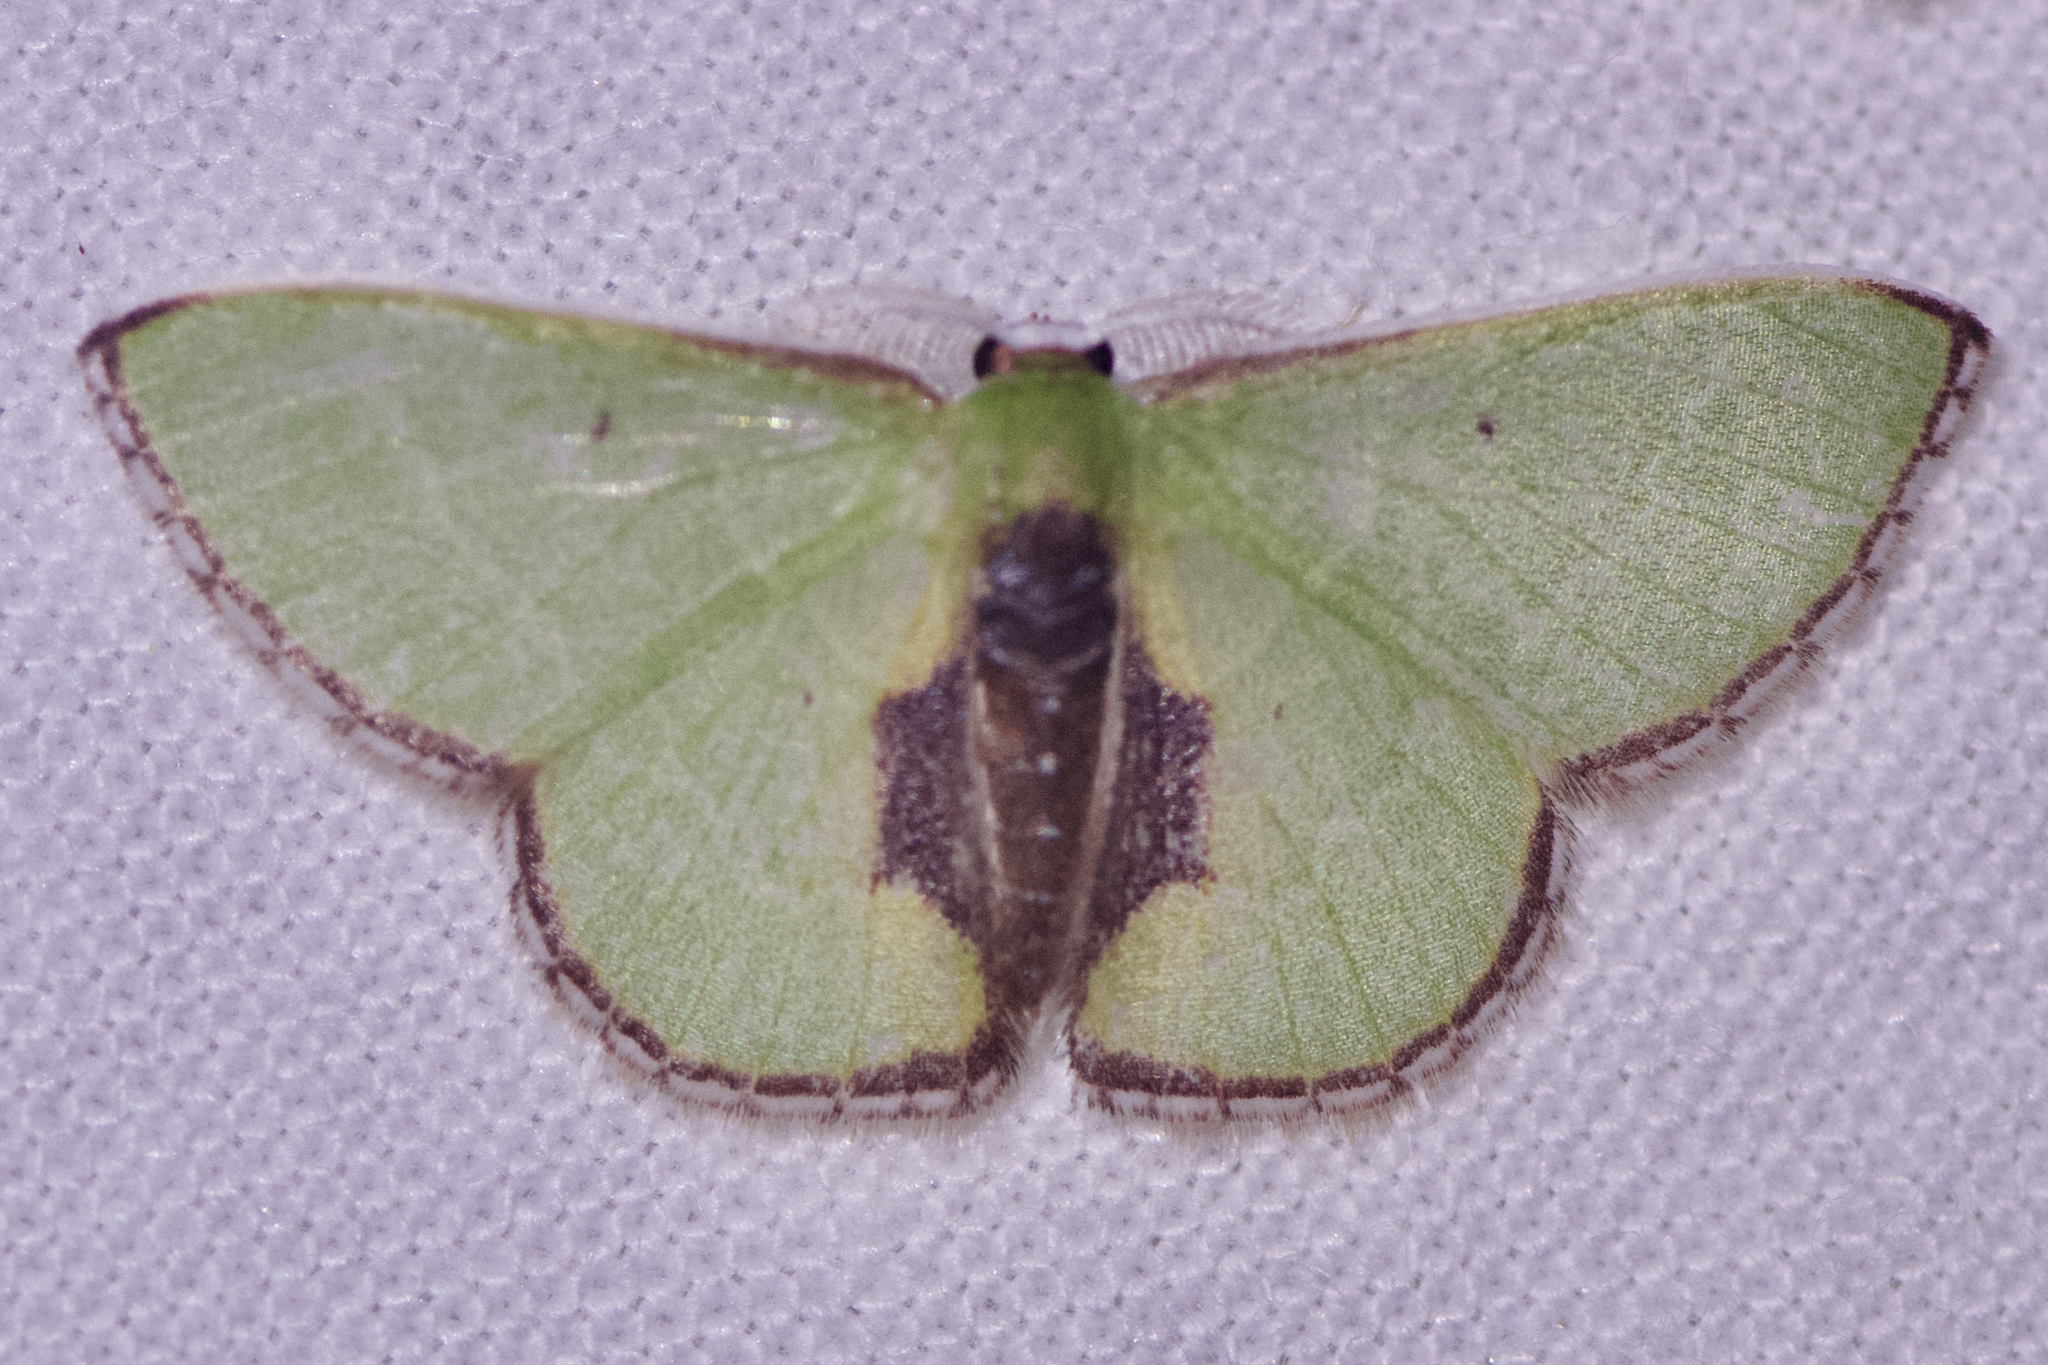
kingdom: Animalia
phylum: Arthropoda
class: Insecta
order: Lepidoptera
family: Geometridae
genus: Synchlora
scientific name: Synchlora astraeoides
